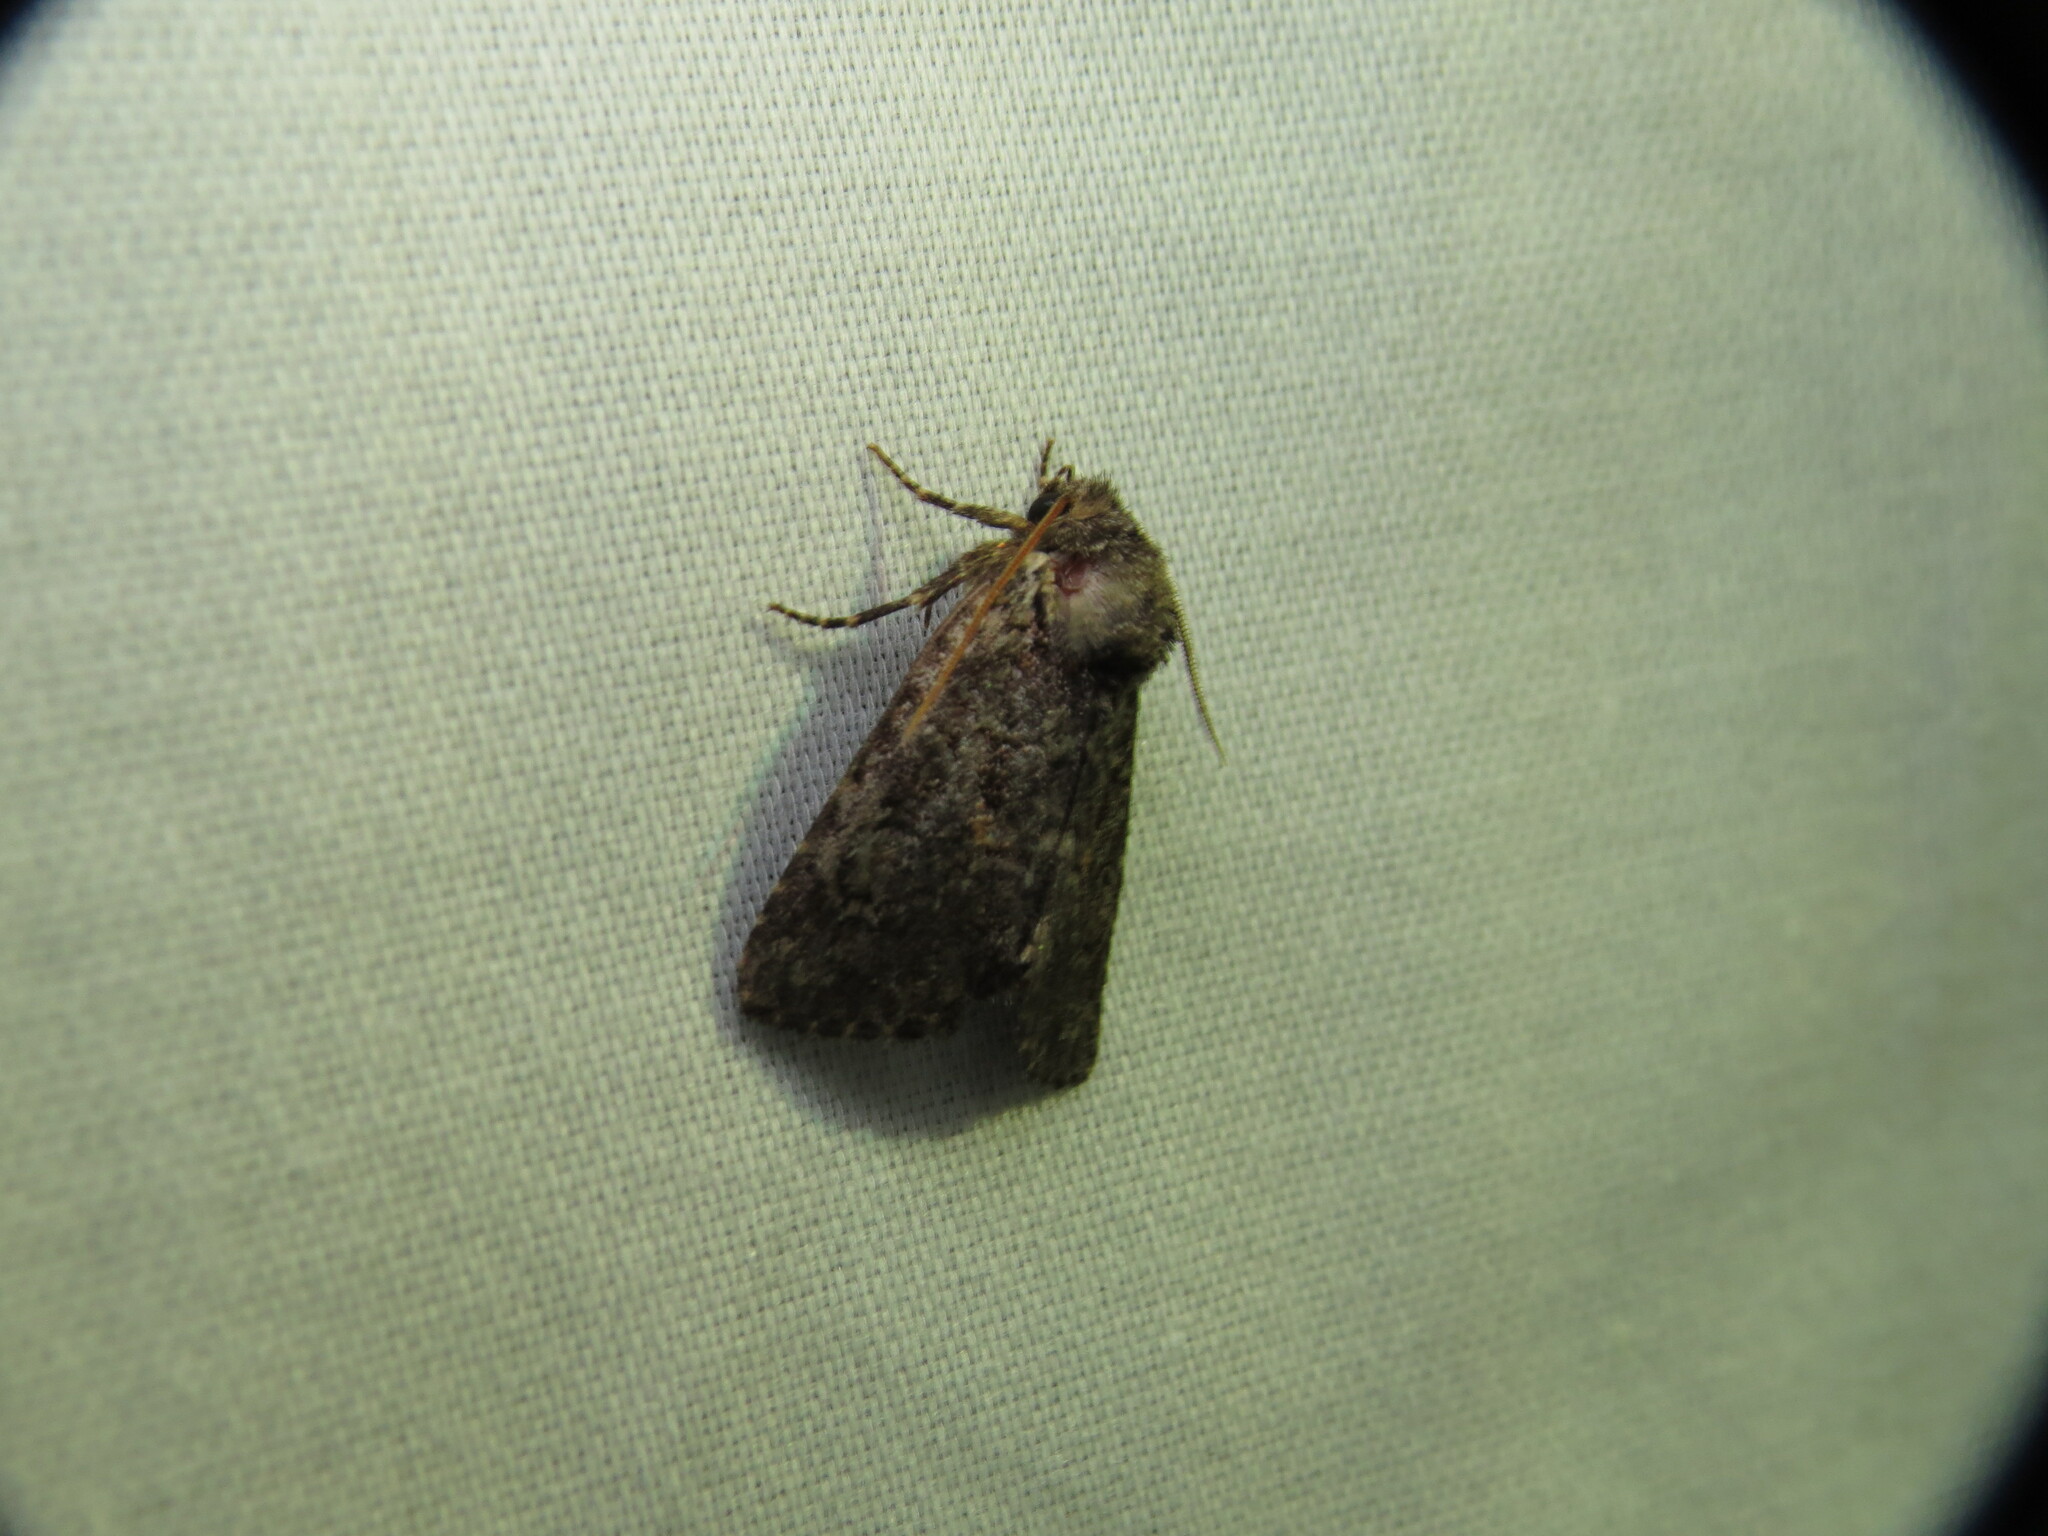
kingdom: Animalia
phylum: Arthropoda
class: Insecta
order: Lepidoptera
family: Noctuidae
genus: Orthodes
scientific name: Orthodes detracta
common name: Disparaged arches moth
